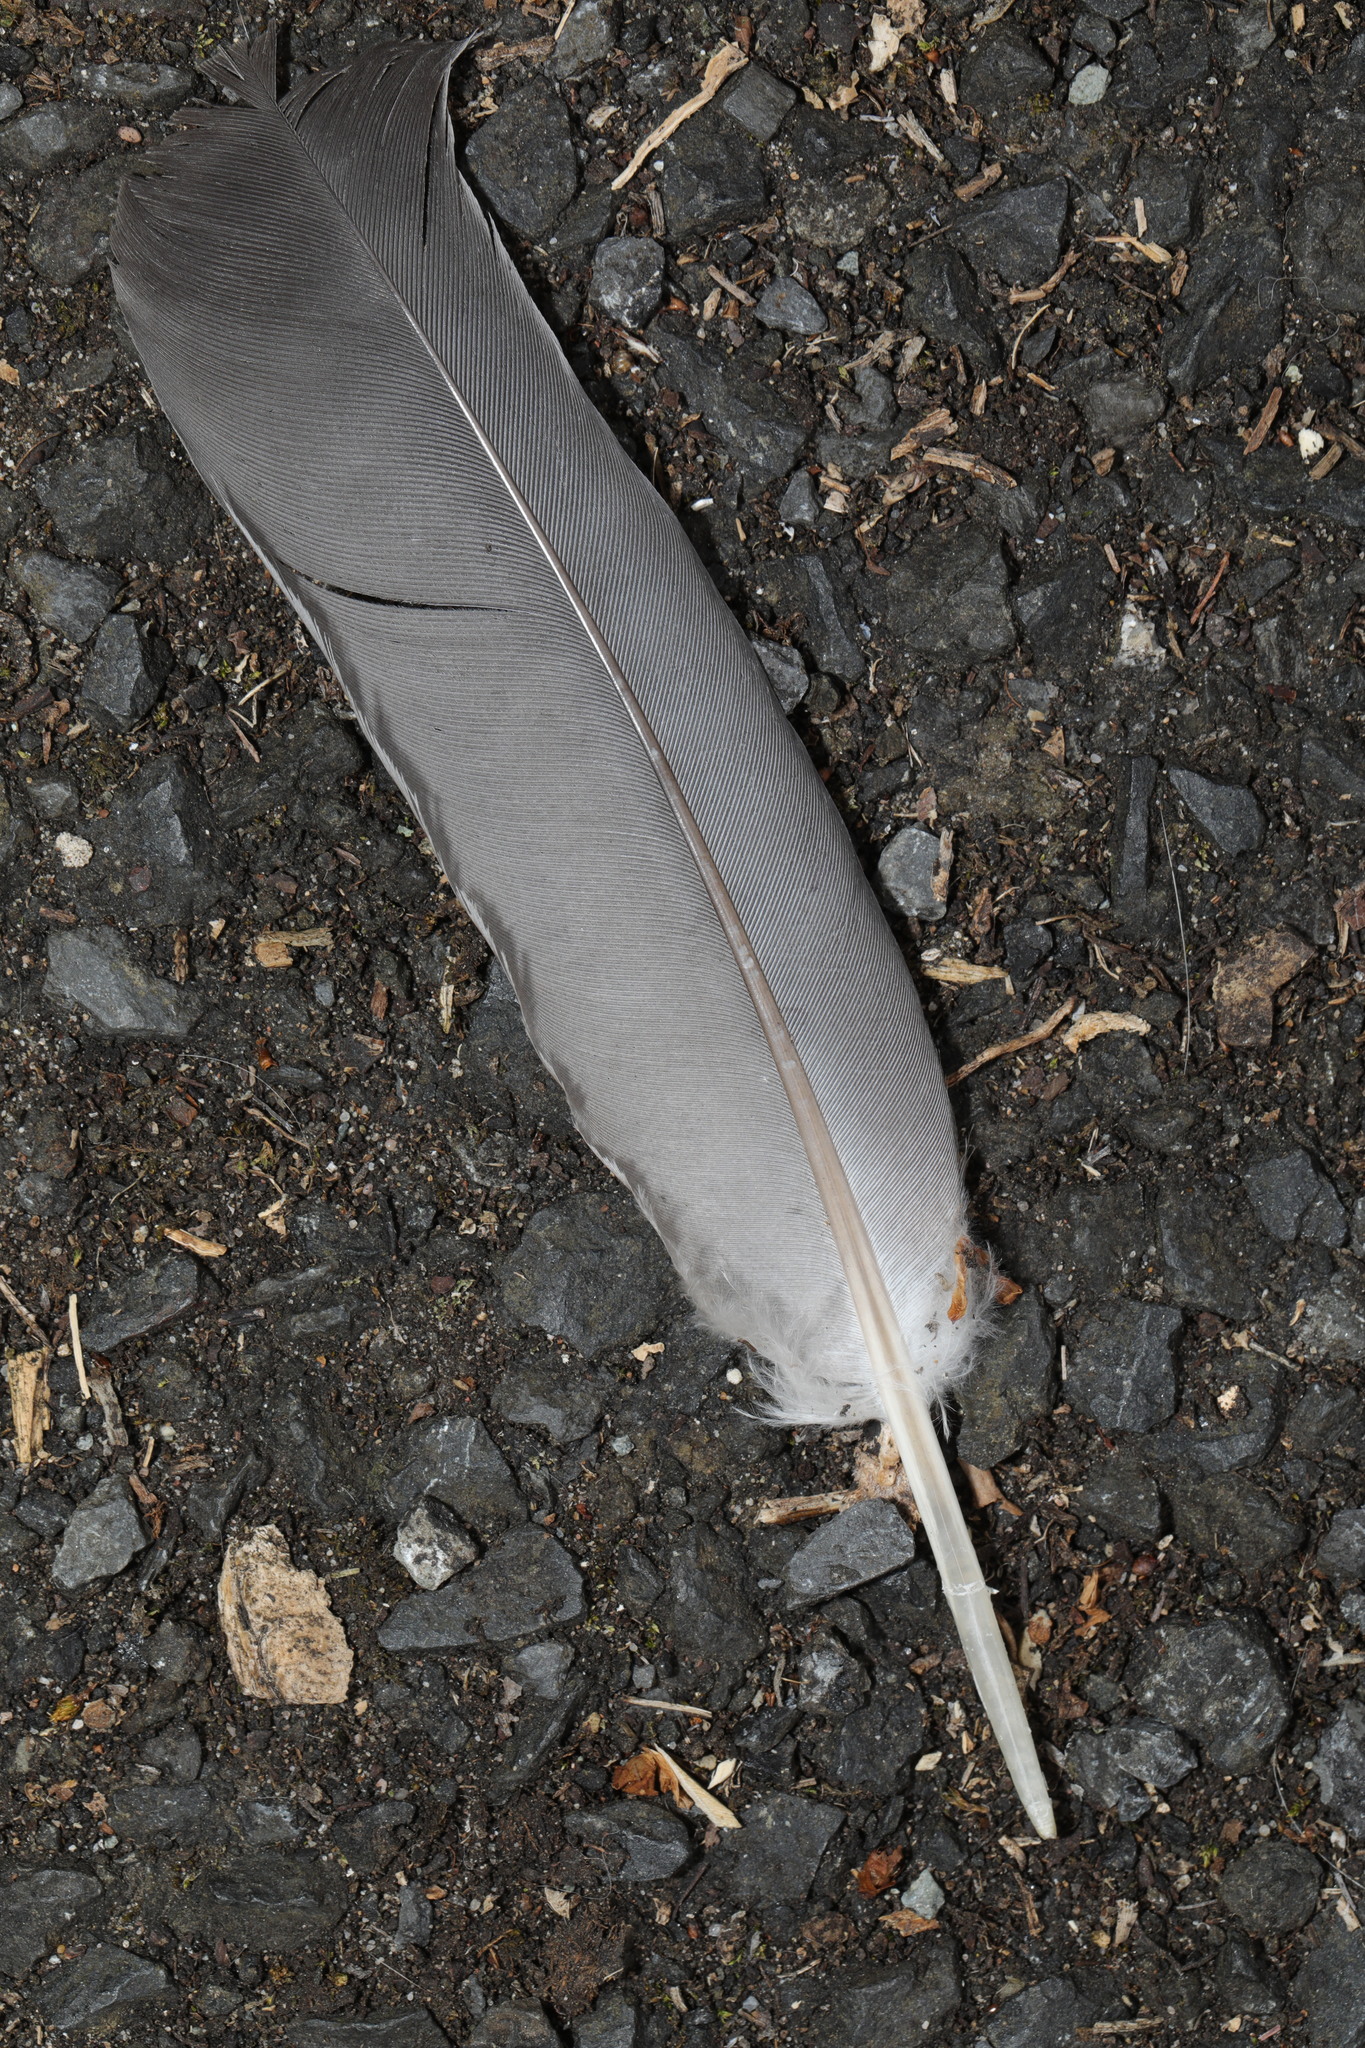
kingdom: Animalia
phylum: Chordata
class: Aves
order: Columbiformes
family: Columbidae
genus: Columba
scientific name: Columba palumbus
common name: Common wood pigeon
